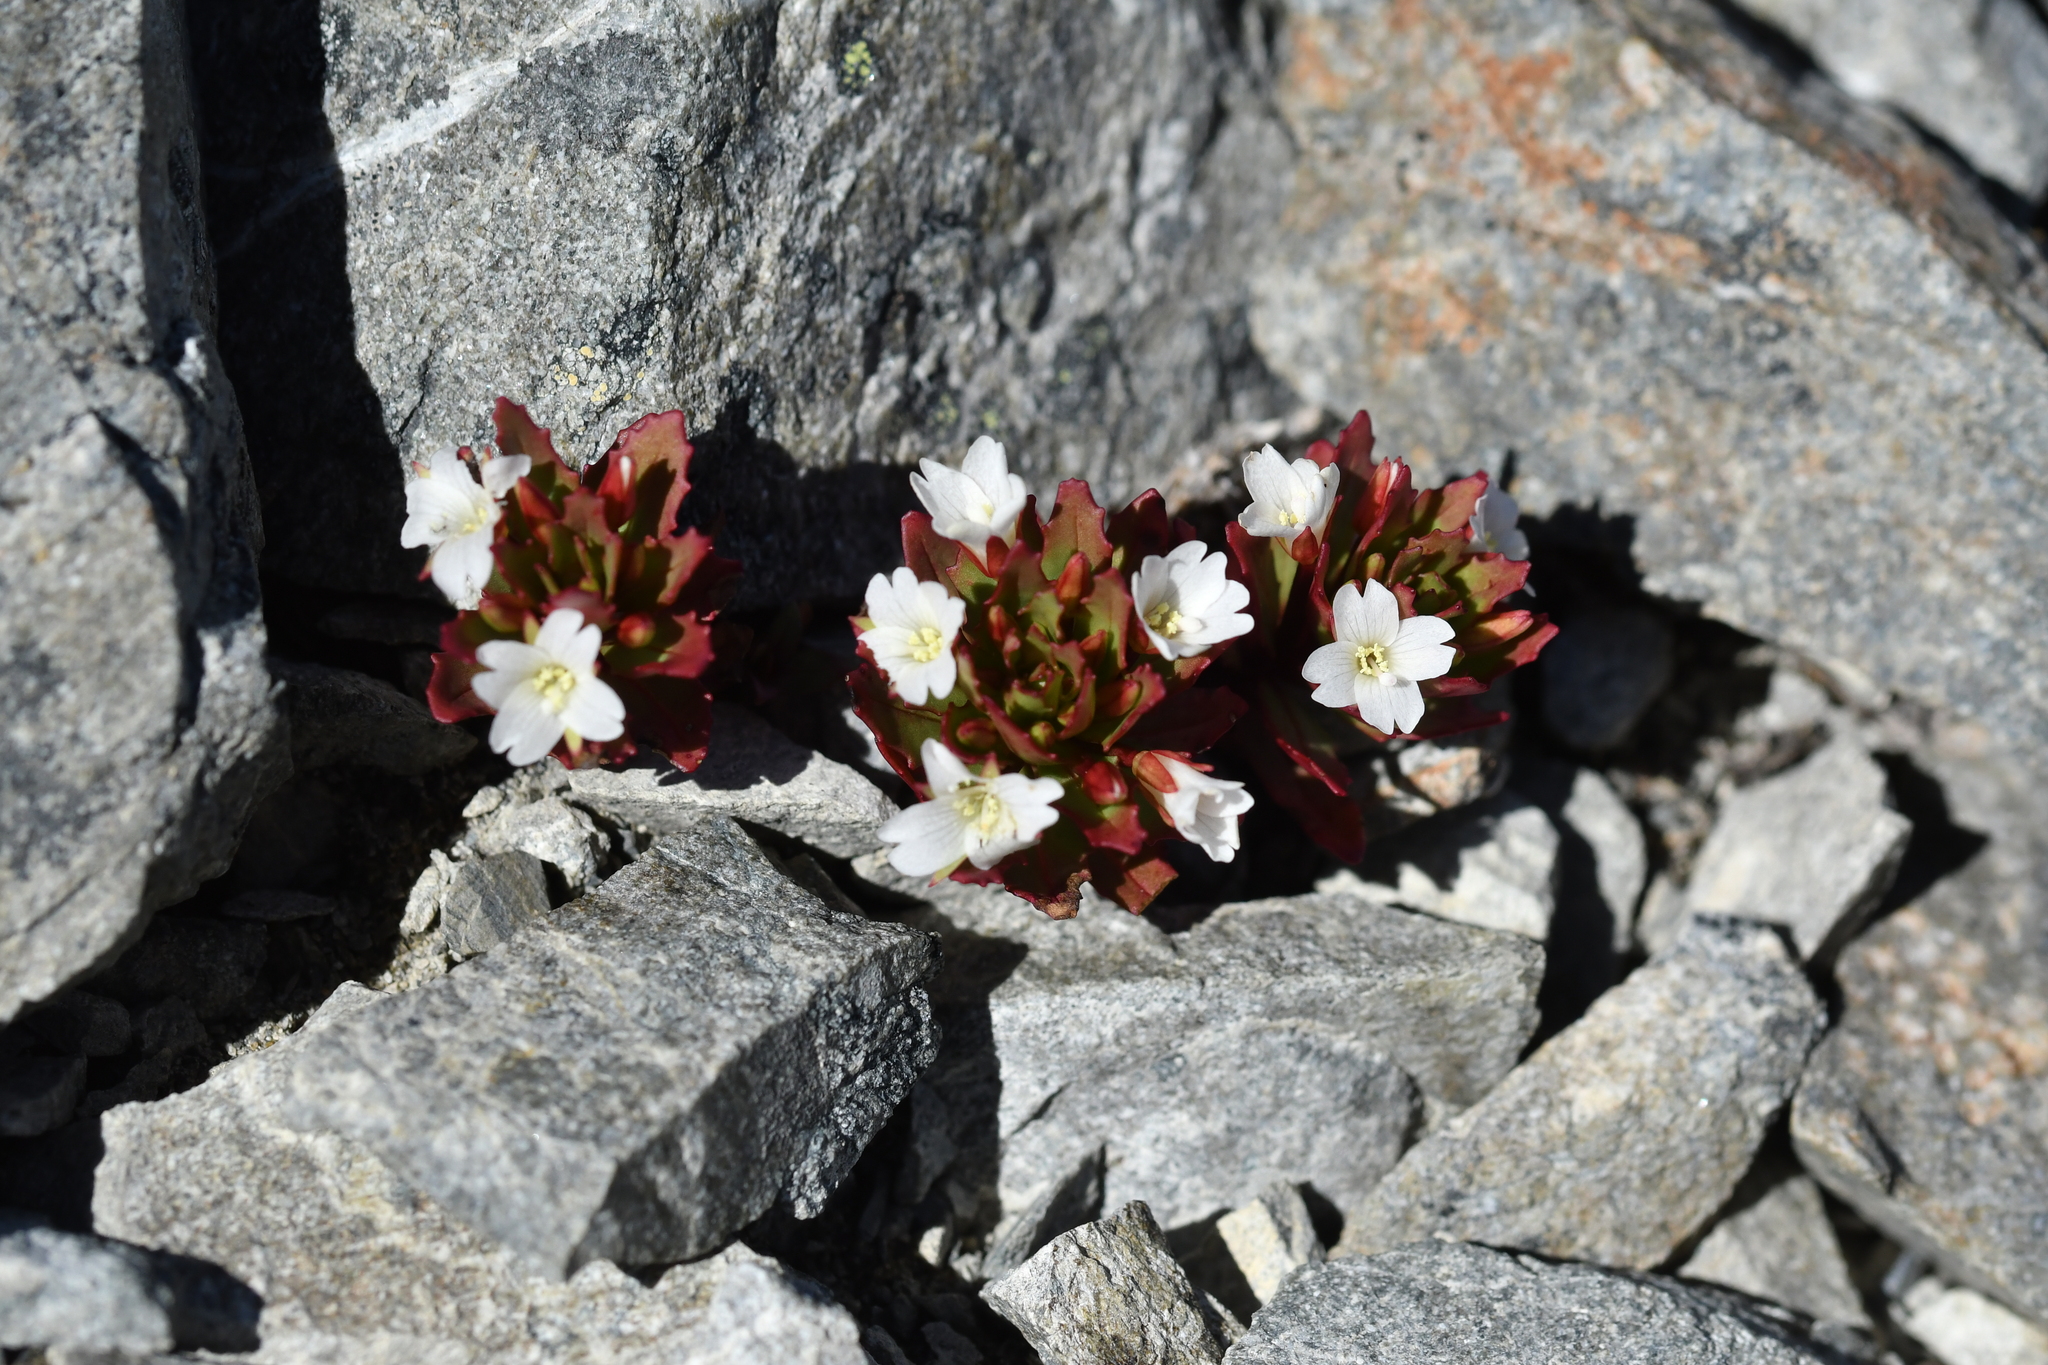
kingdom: Plantae
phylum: Tracheophyta
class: Magnoliopsida
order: Myrtales
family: Onagraceae
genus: Epilobium
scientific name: Epilobium pycnostachyum
